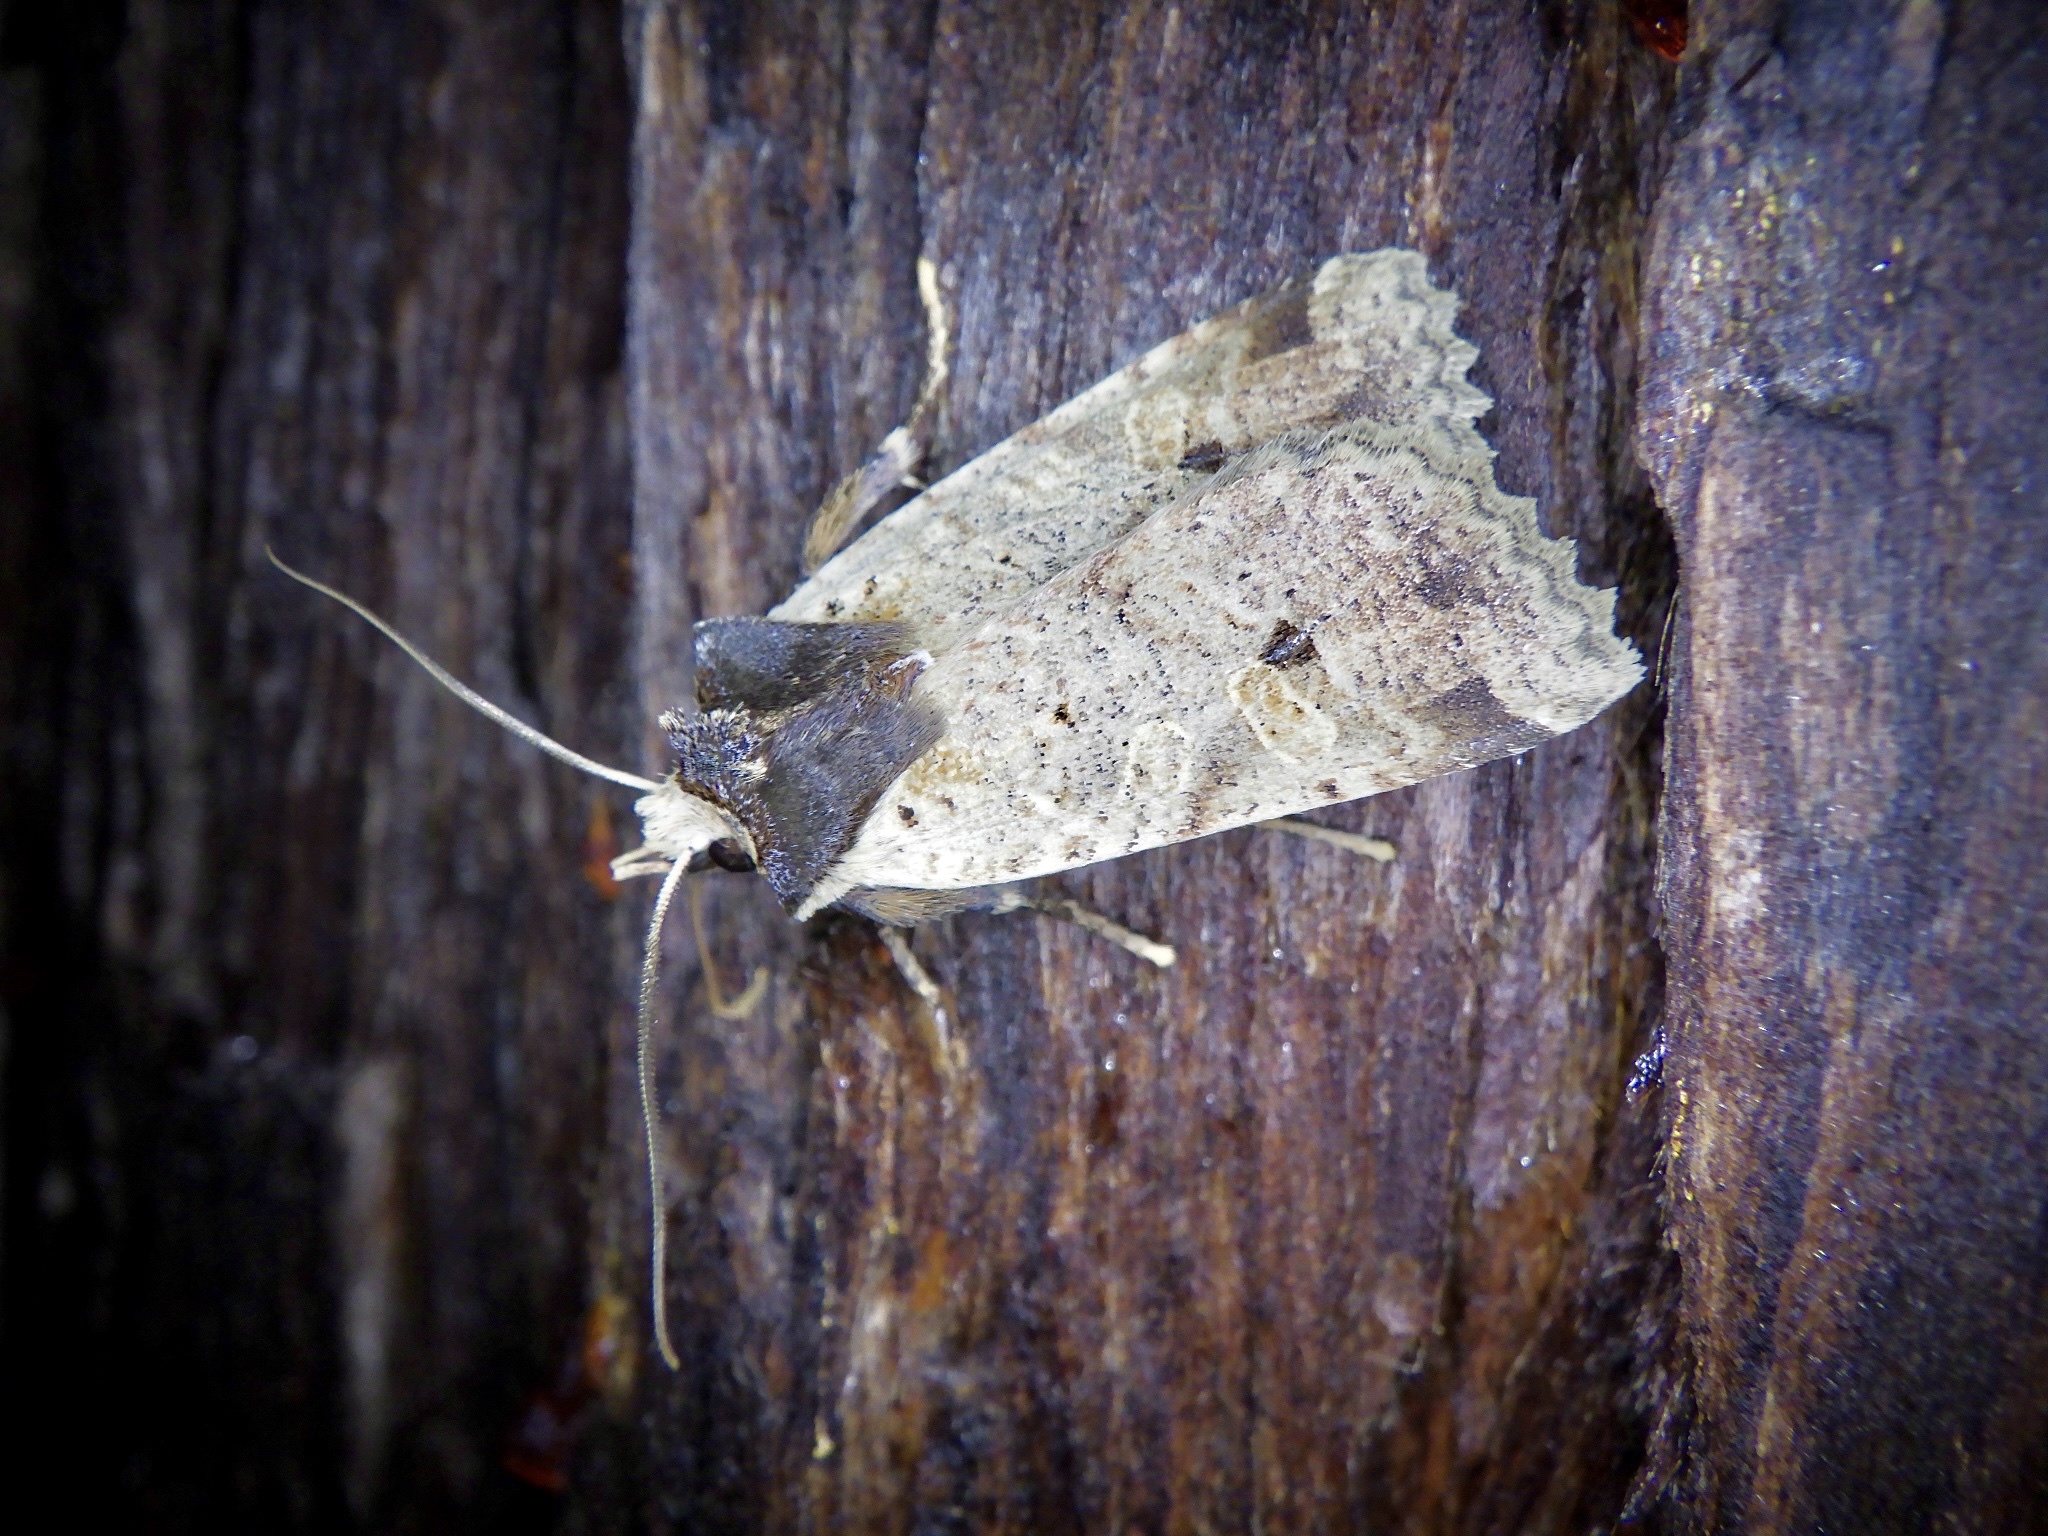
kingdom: Animalia
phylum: Arthropoda
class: Insecta
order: Lepidoptera
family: Noctuidae
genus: Rhynchaglaea
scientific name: Rhynchaglaea scitula
